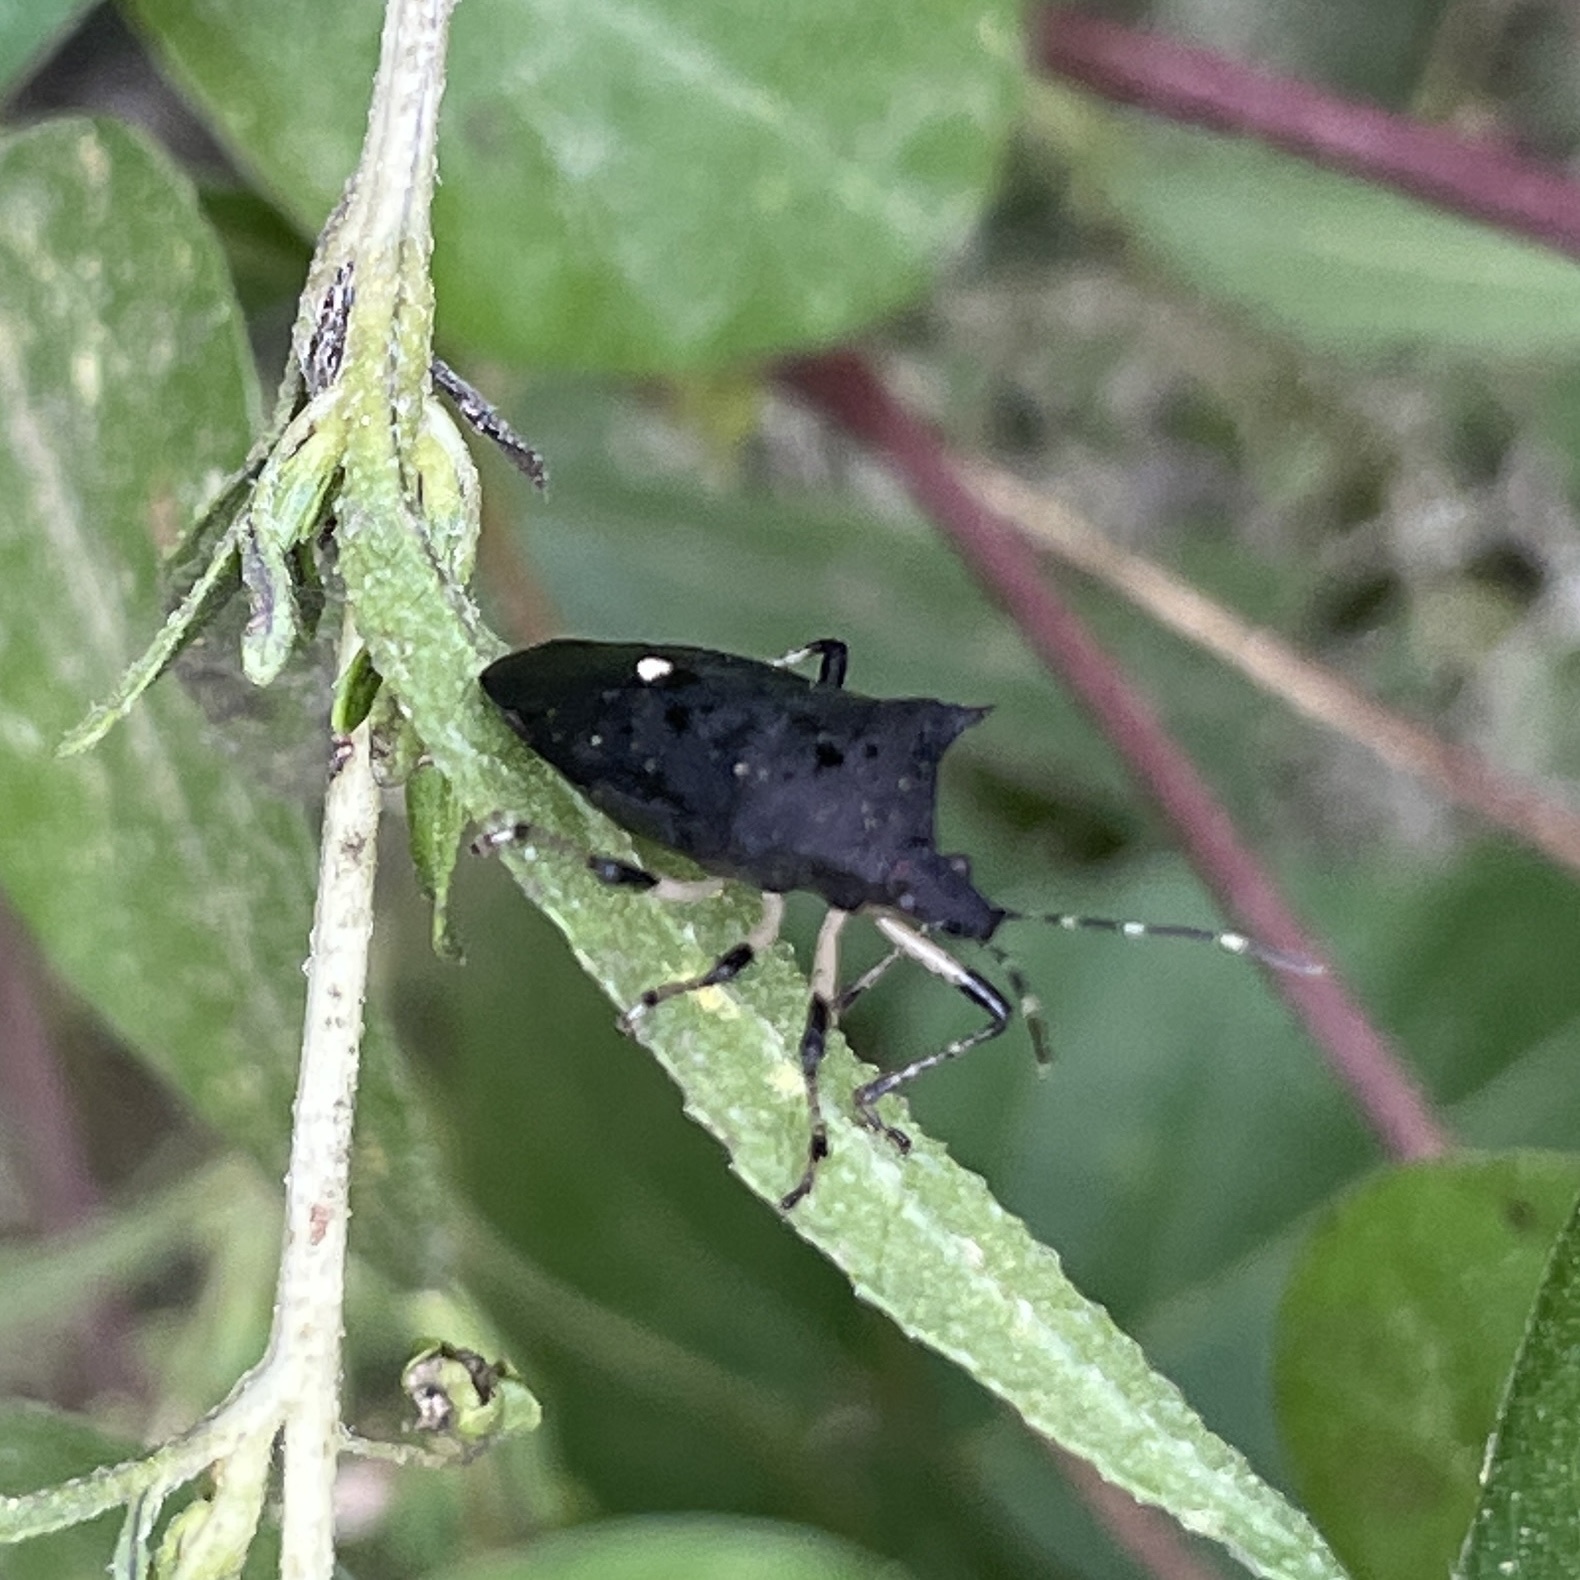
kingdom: Animalia
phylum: Arthropoda
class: Insecta
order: Hemiptera
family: Pentatomidae
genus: Proxys
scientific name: Proxys punctulatus
